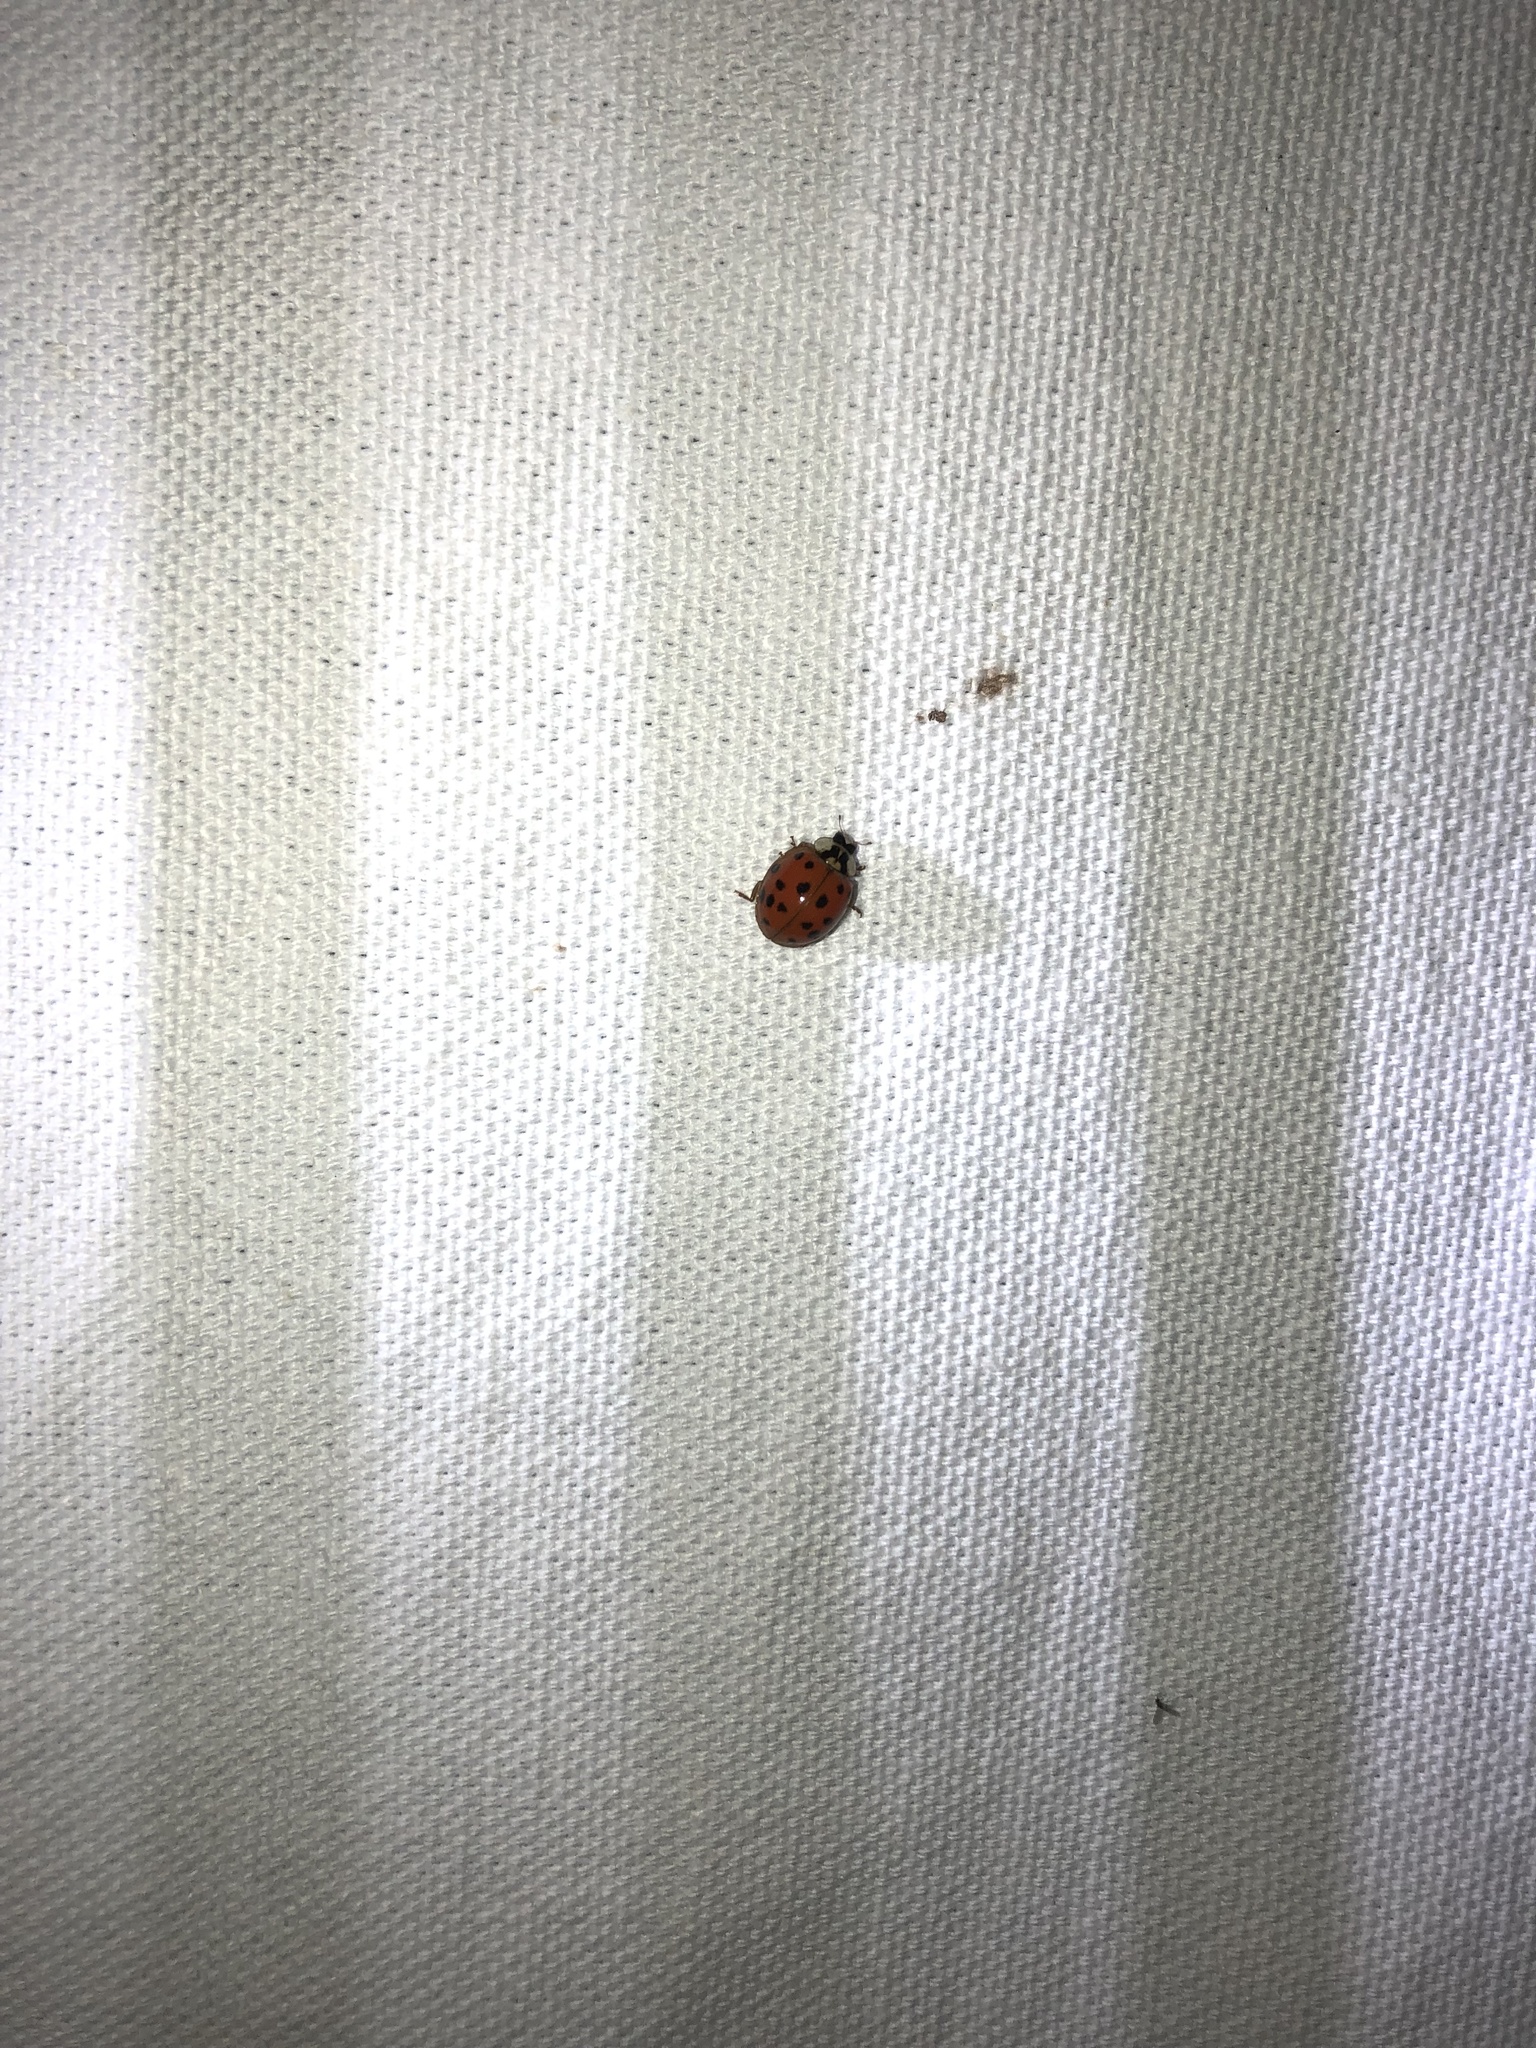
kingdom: Animalia
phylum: Arthropoda
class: Insecta
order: Coleoptera
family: Coccinellidae
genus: Harmonia
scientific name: Harmonia axyridis
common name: Harlequin ladybird
